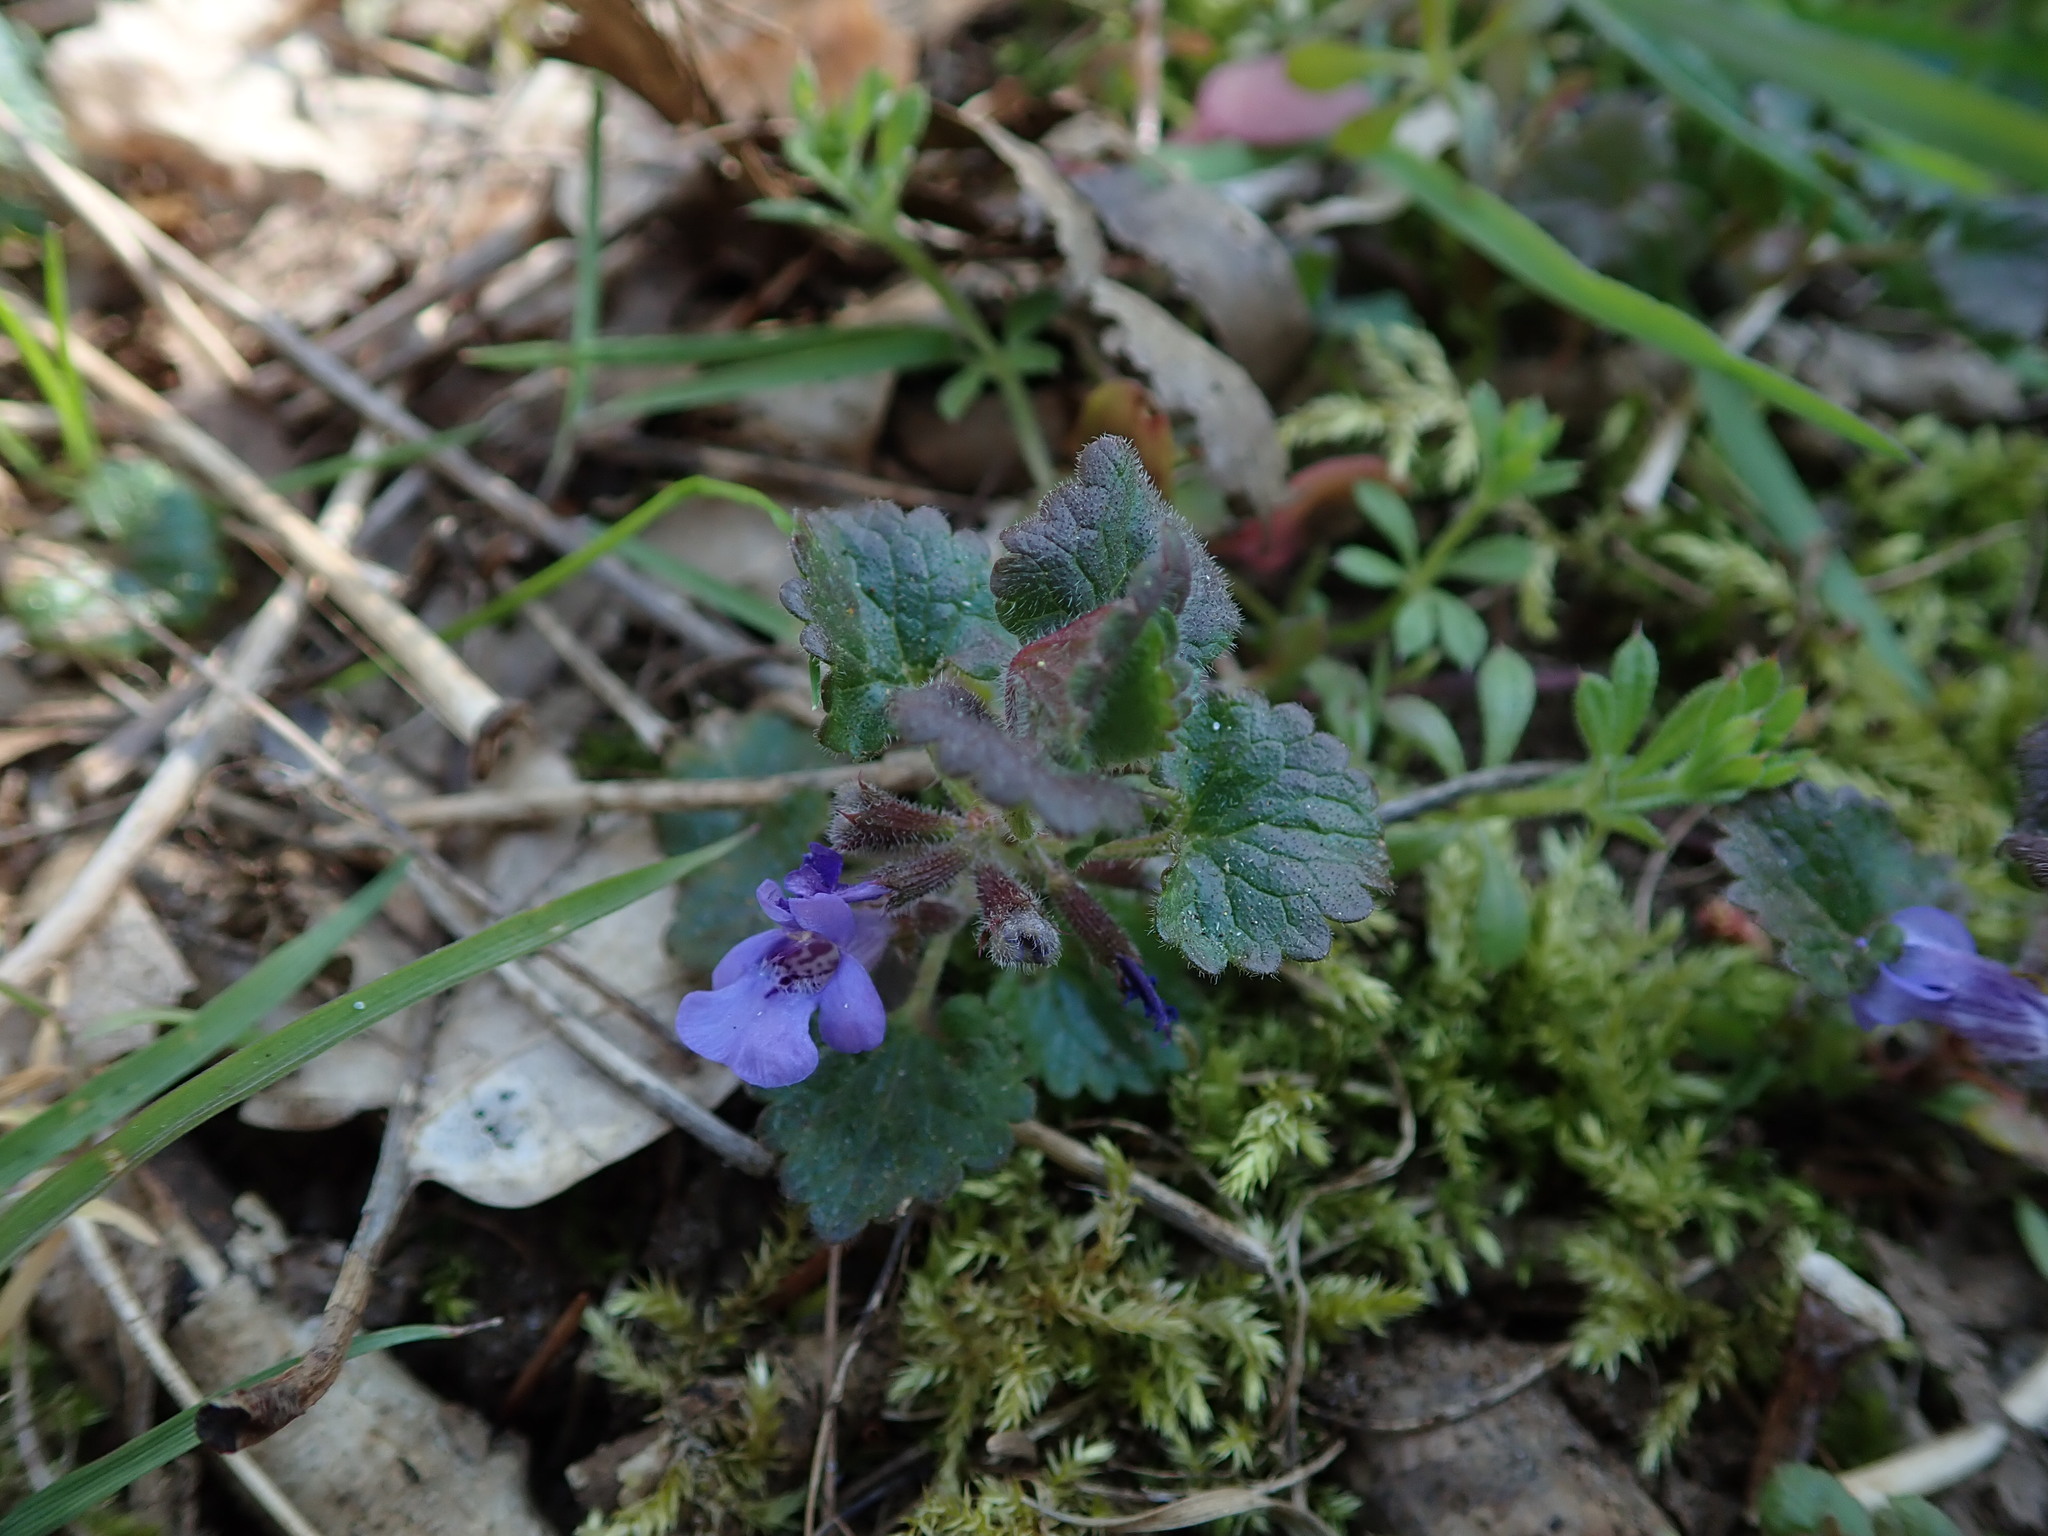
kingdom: Plantae
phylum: Tracheophyta
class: Magnoliopsida
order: Lamiales
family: Lamiaceae
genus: Glechoma
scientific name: Glechoma hederacea
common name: Ground ivy
